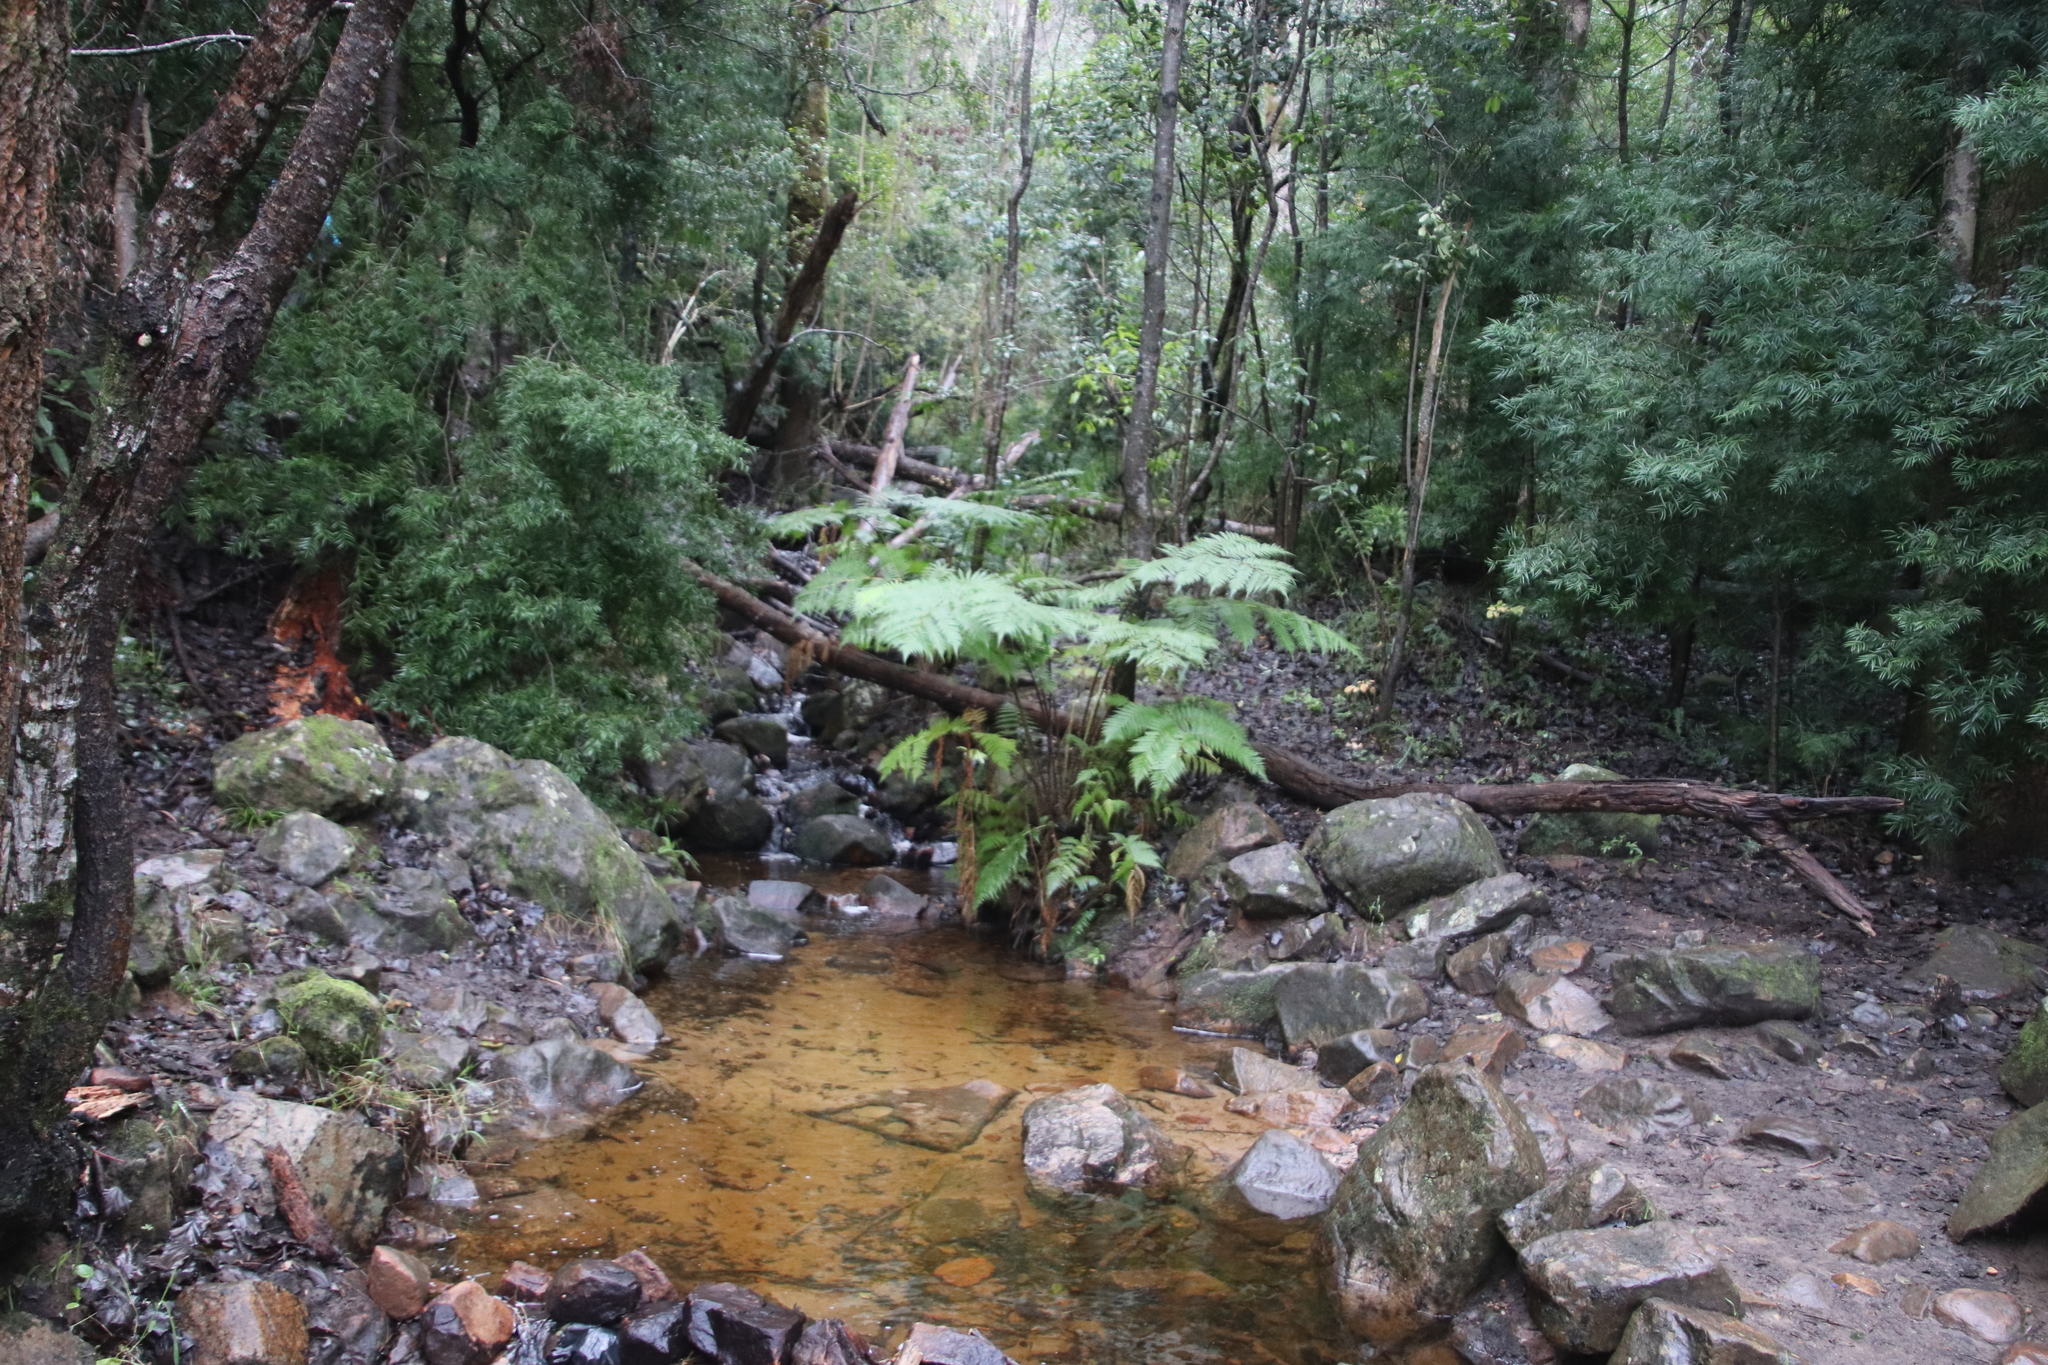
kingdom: Plantae
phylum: Tracheophyta
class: Polypodiopsida
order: Cyatheales
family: Cyatheaceae
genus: Sphaeropteris
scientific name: Sphaeropteris cooperi
